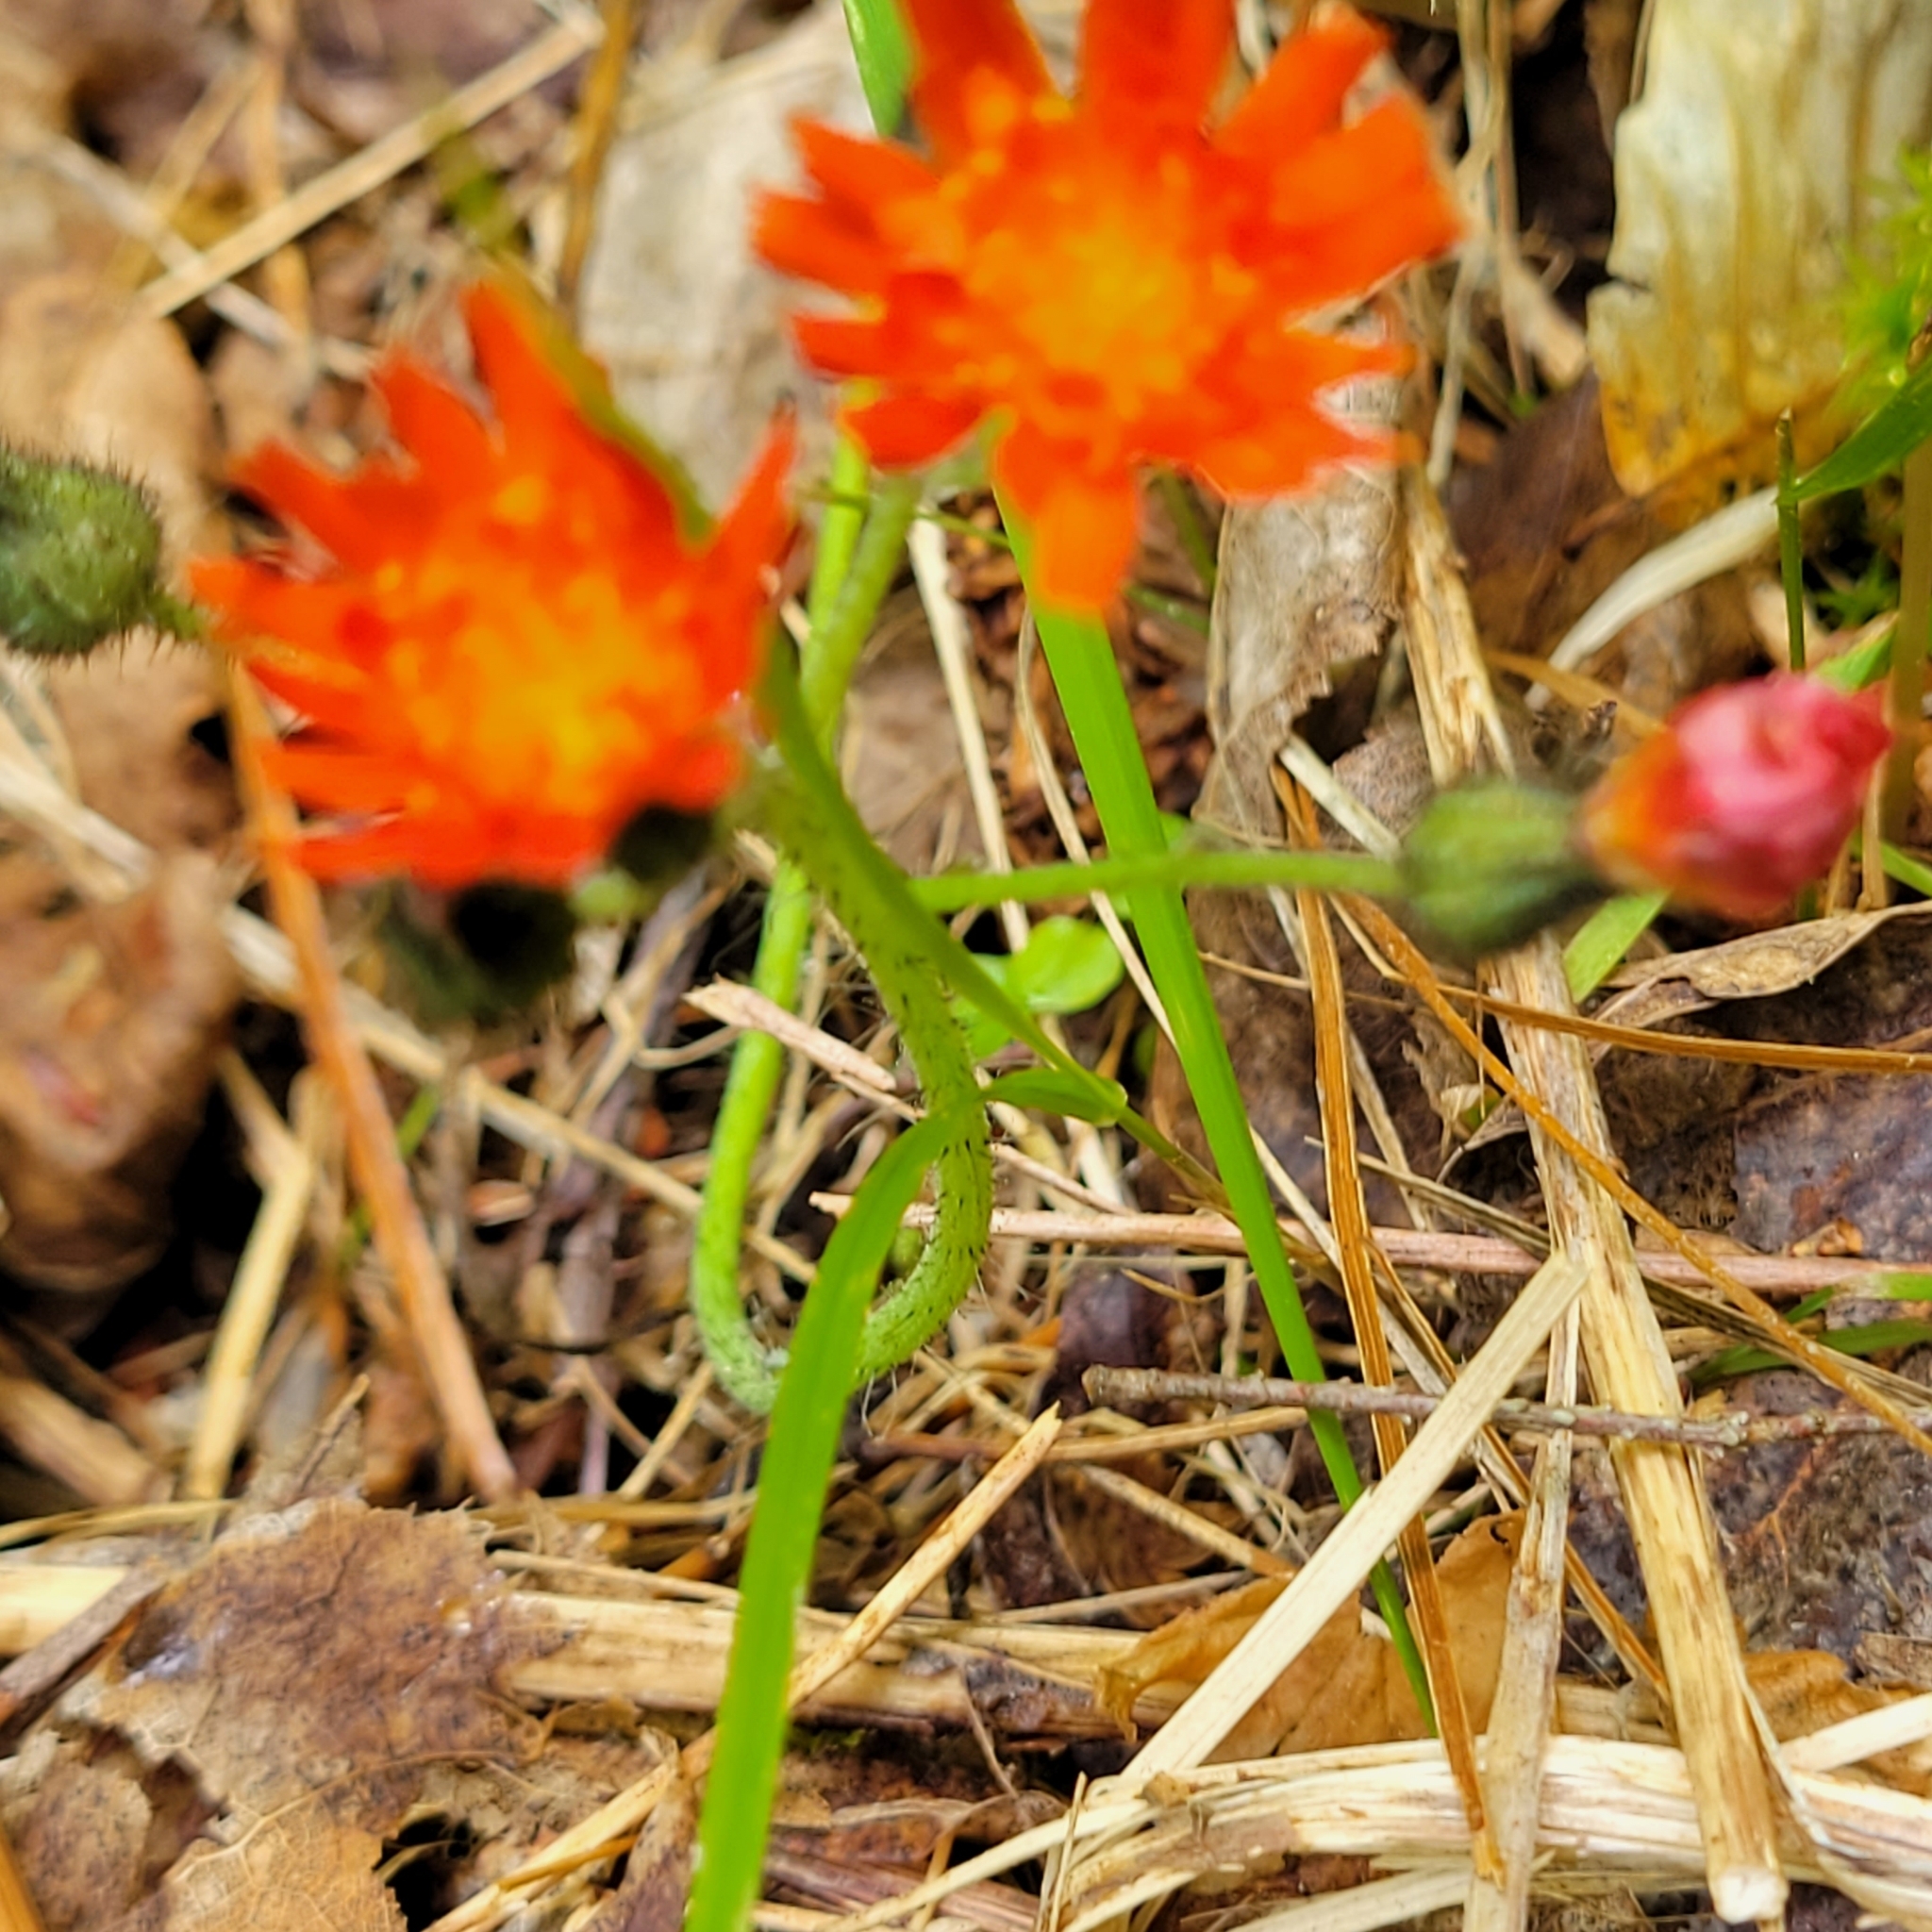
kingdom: Plantae
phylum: Tracheophyta
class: Magnoliopsida
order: Asterales
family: Asteraceae
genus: Pilosella
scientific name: Pilosella aurantiaca
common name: Fox-and-cubs
